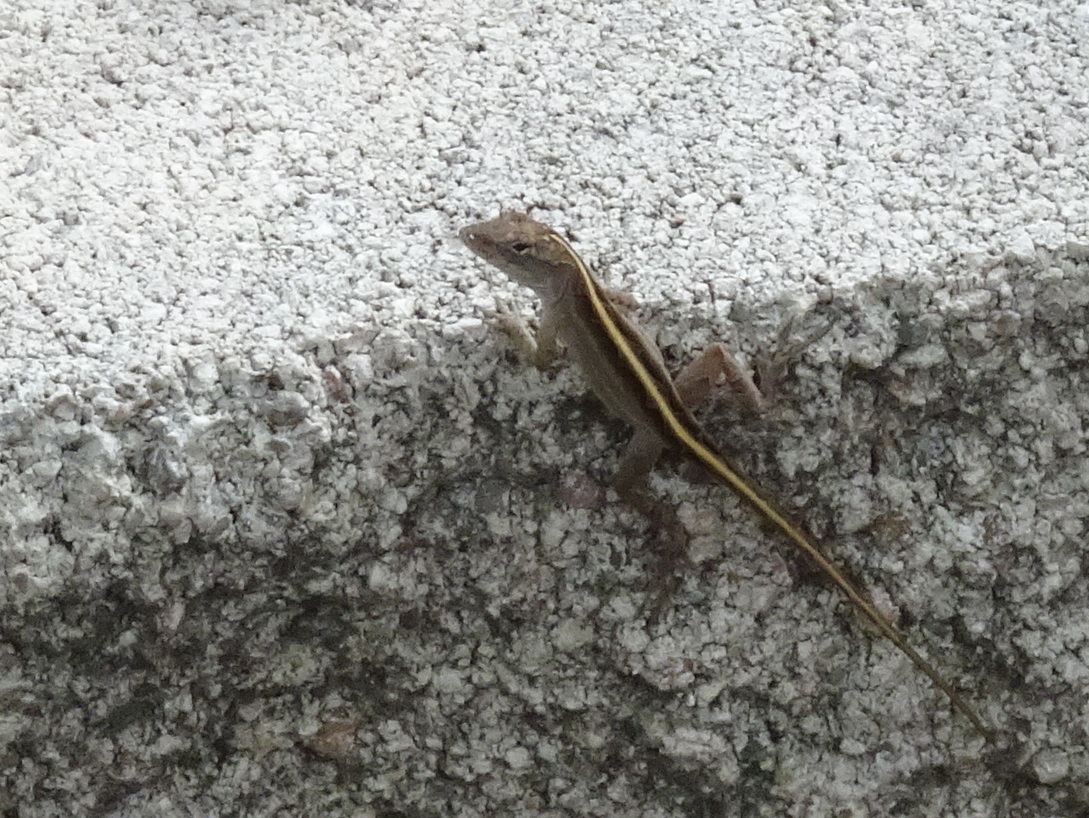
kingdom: Animalia
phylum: Chordata
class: Squamata
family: Dactyloidae
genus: Anolis
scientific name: Anolis sagrei
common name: Brown anole
